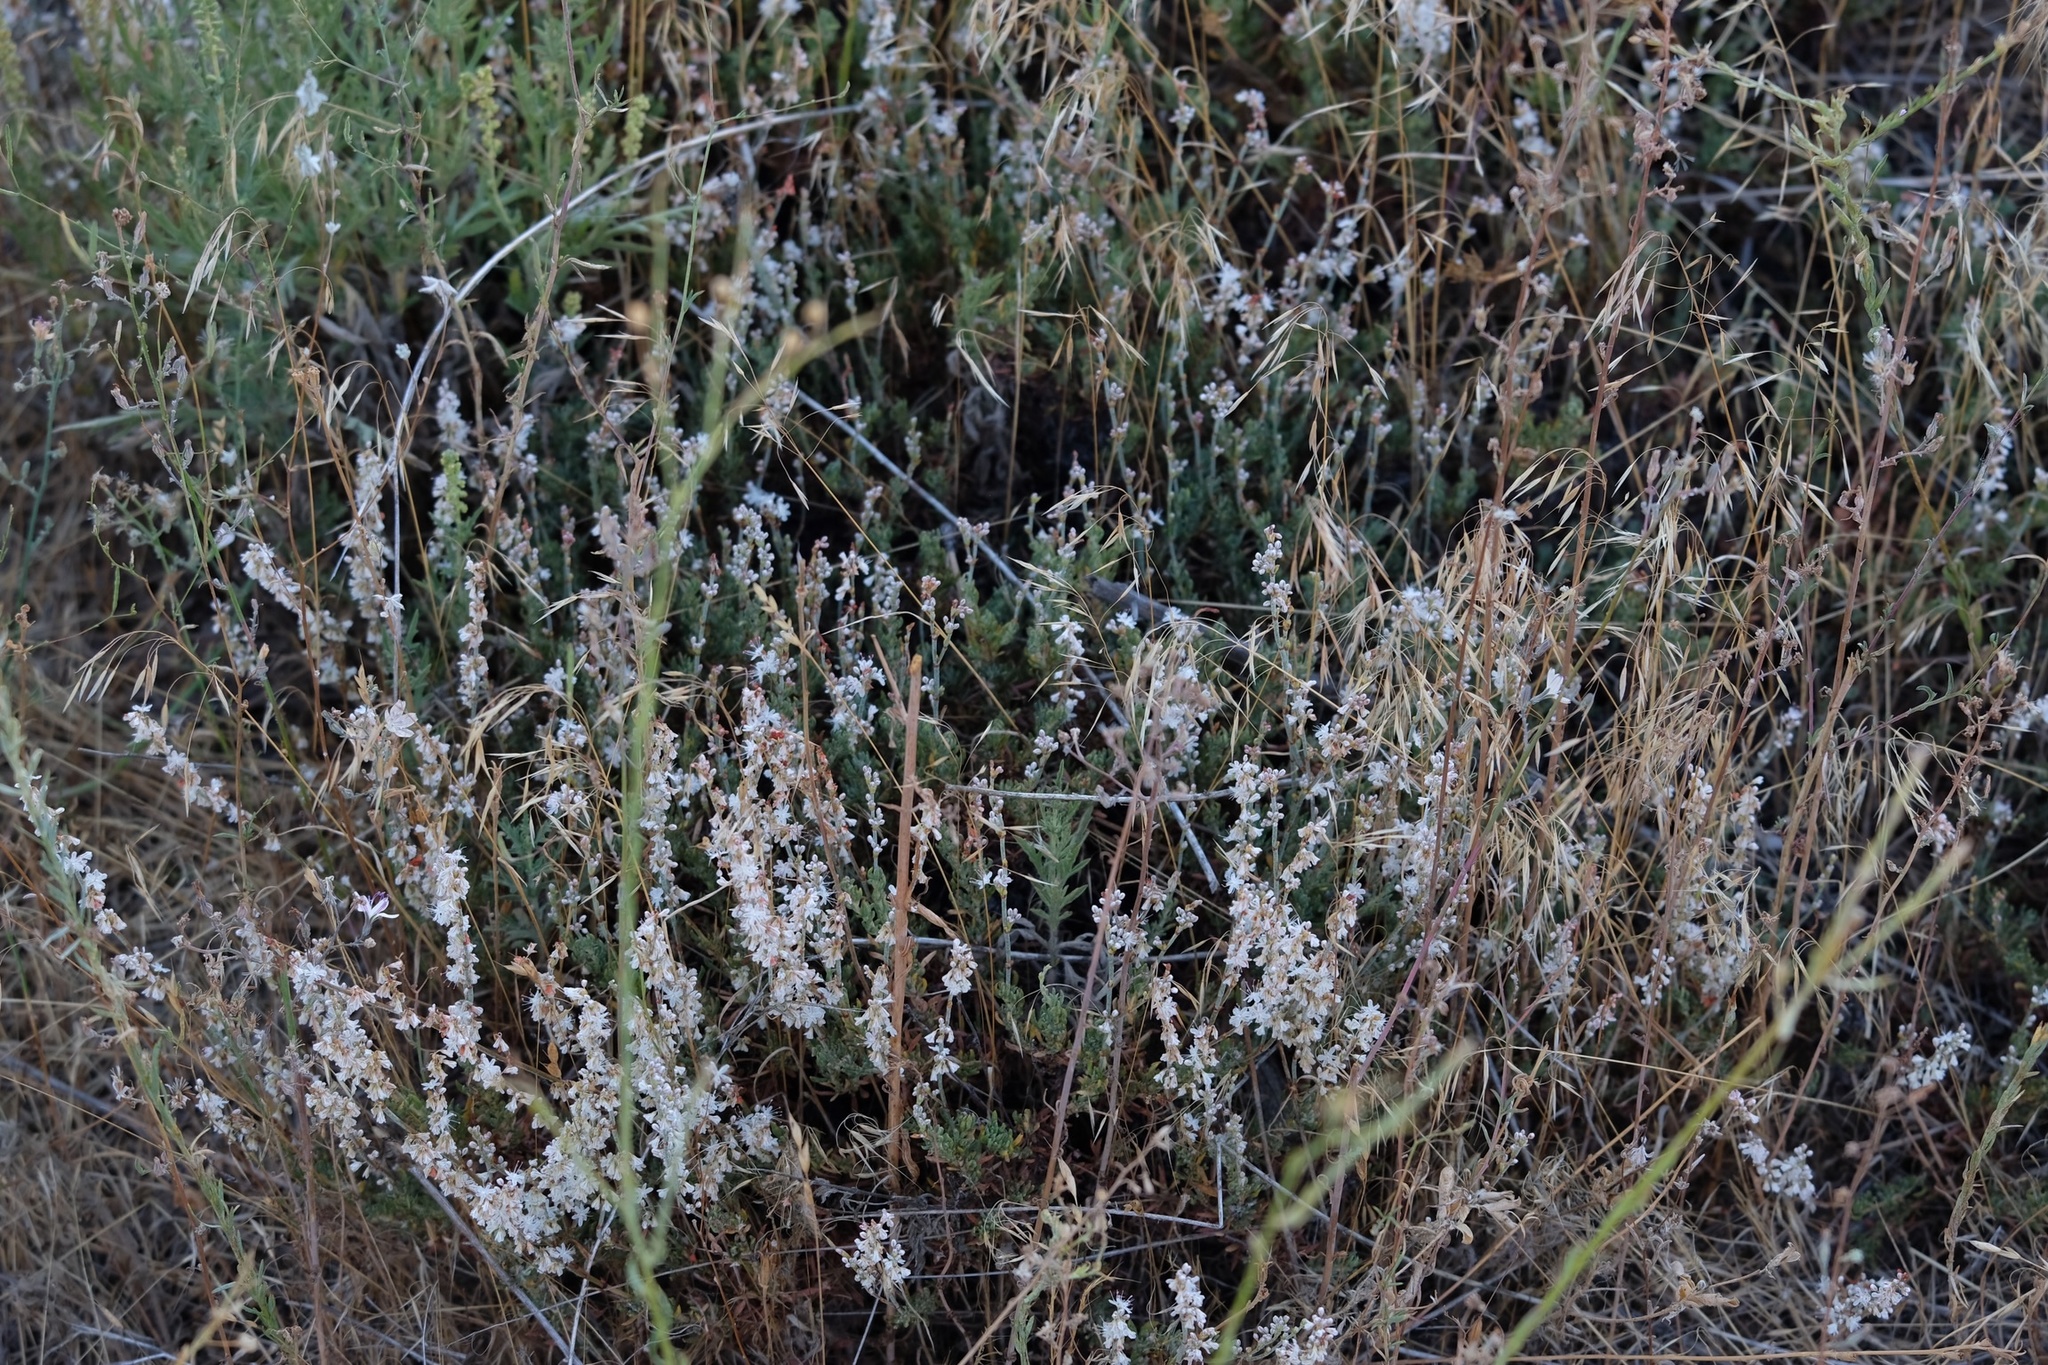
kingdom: Plantae
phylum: Tracheophyta
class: Magnoliopsida
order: Caryophyllales
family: Polygonaceae
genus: Eriogonum
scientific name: Eriogonum wrightii
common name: Bastard-sage
